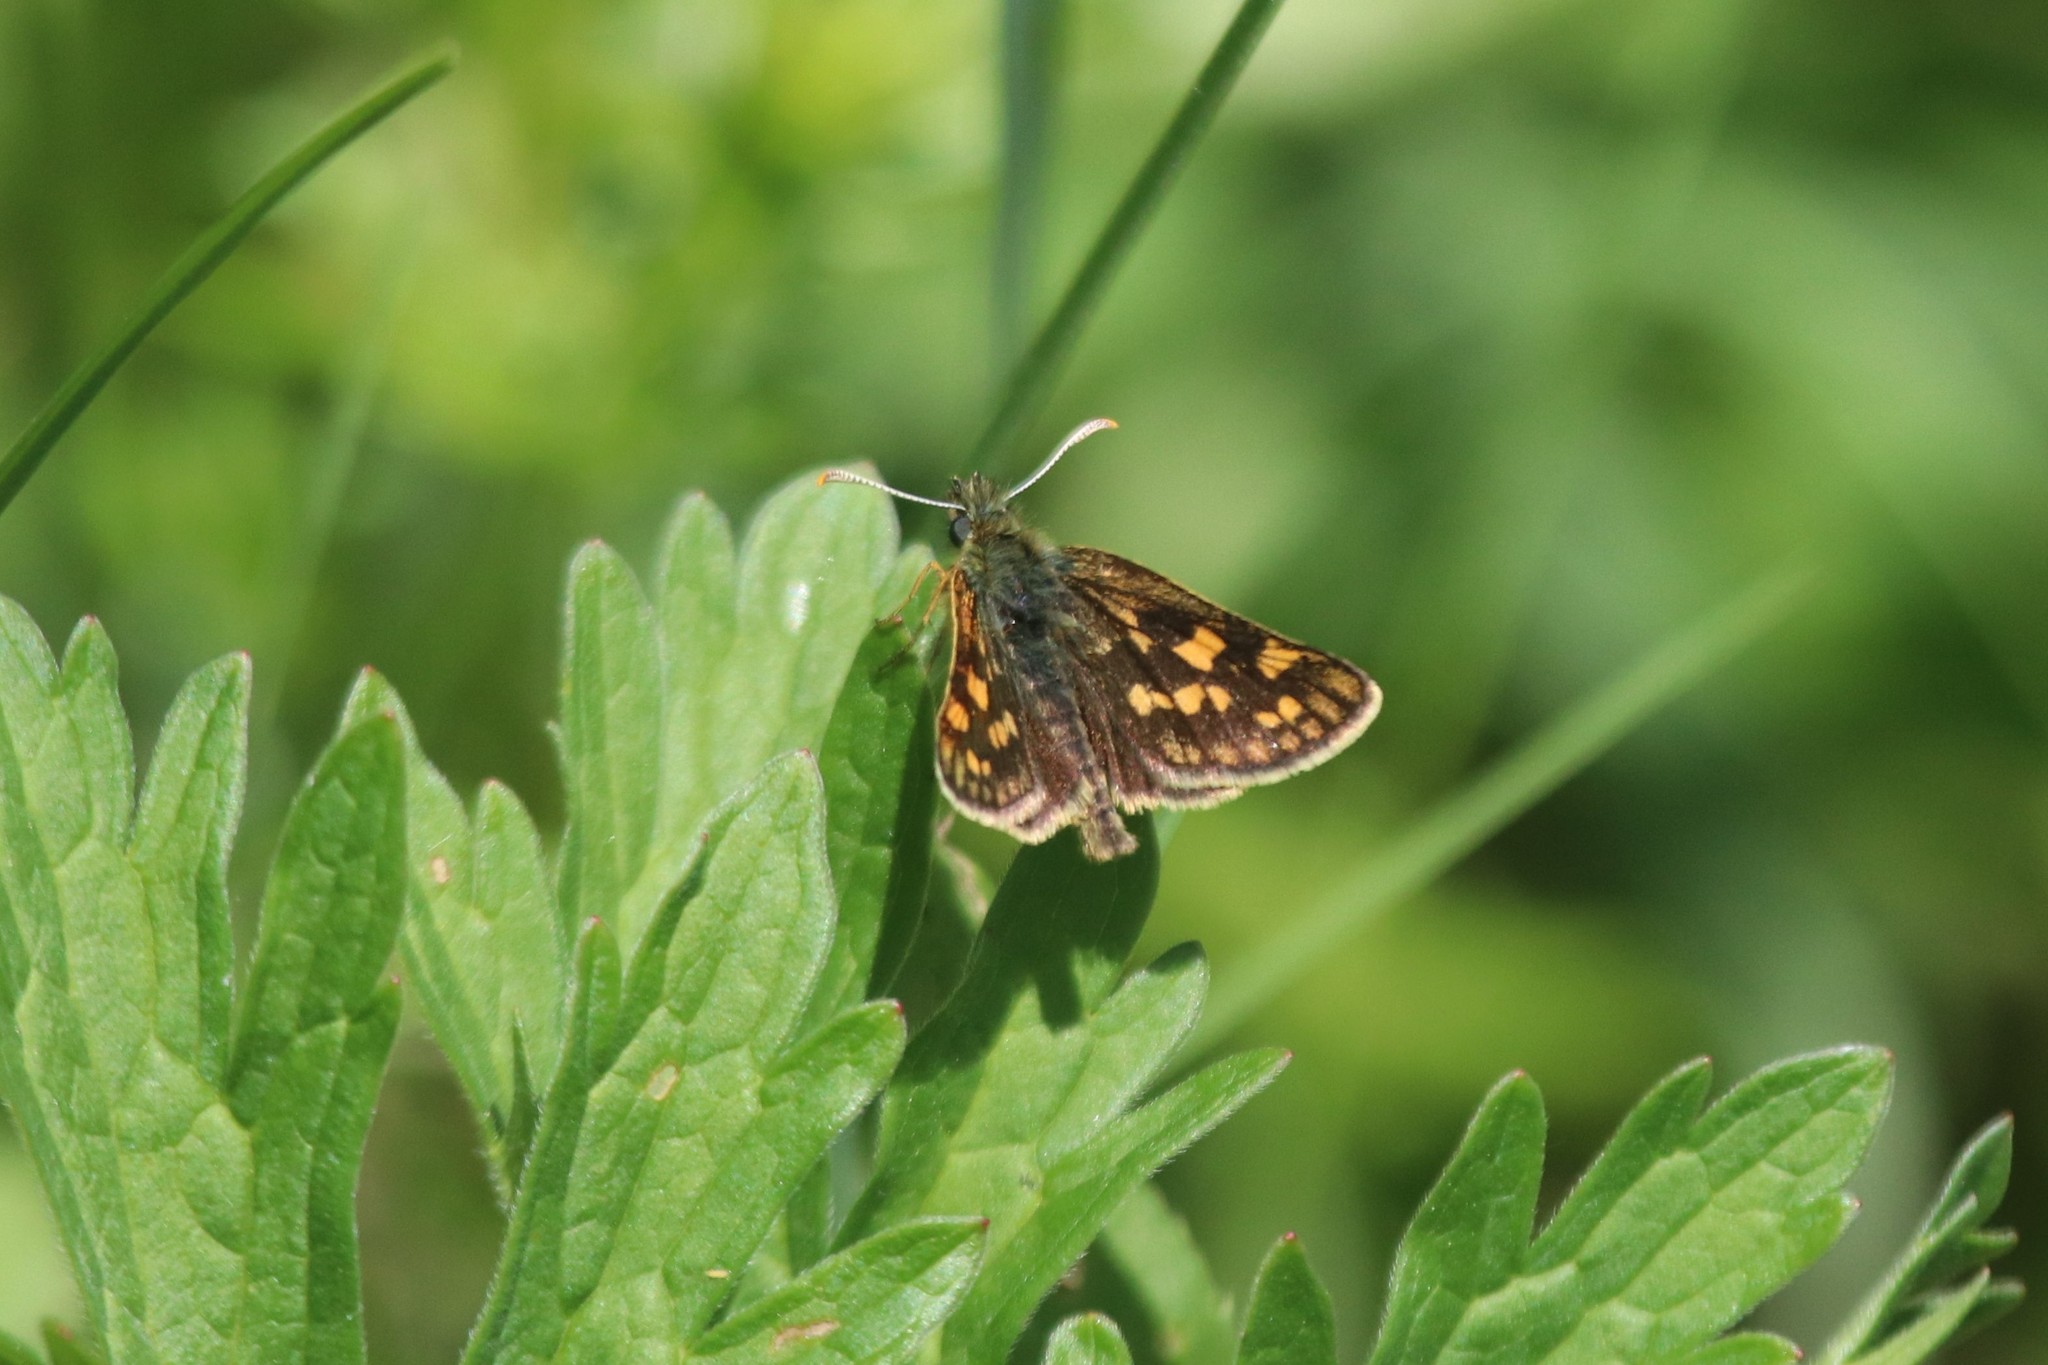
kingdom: Animalia
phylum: Arthropoda
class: Insecta
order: Lepidoptera
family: Hesperiidae
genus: Carterocephalus
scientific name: Carterocephalus palaemon
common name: Chequered skipper
